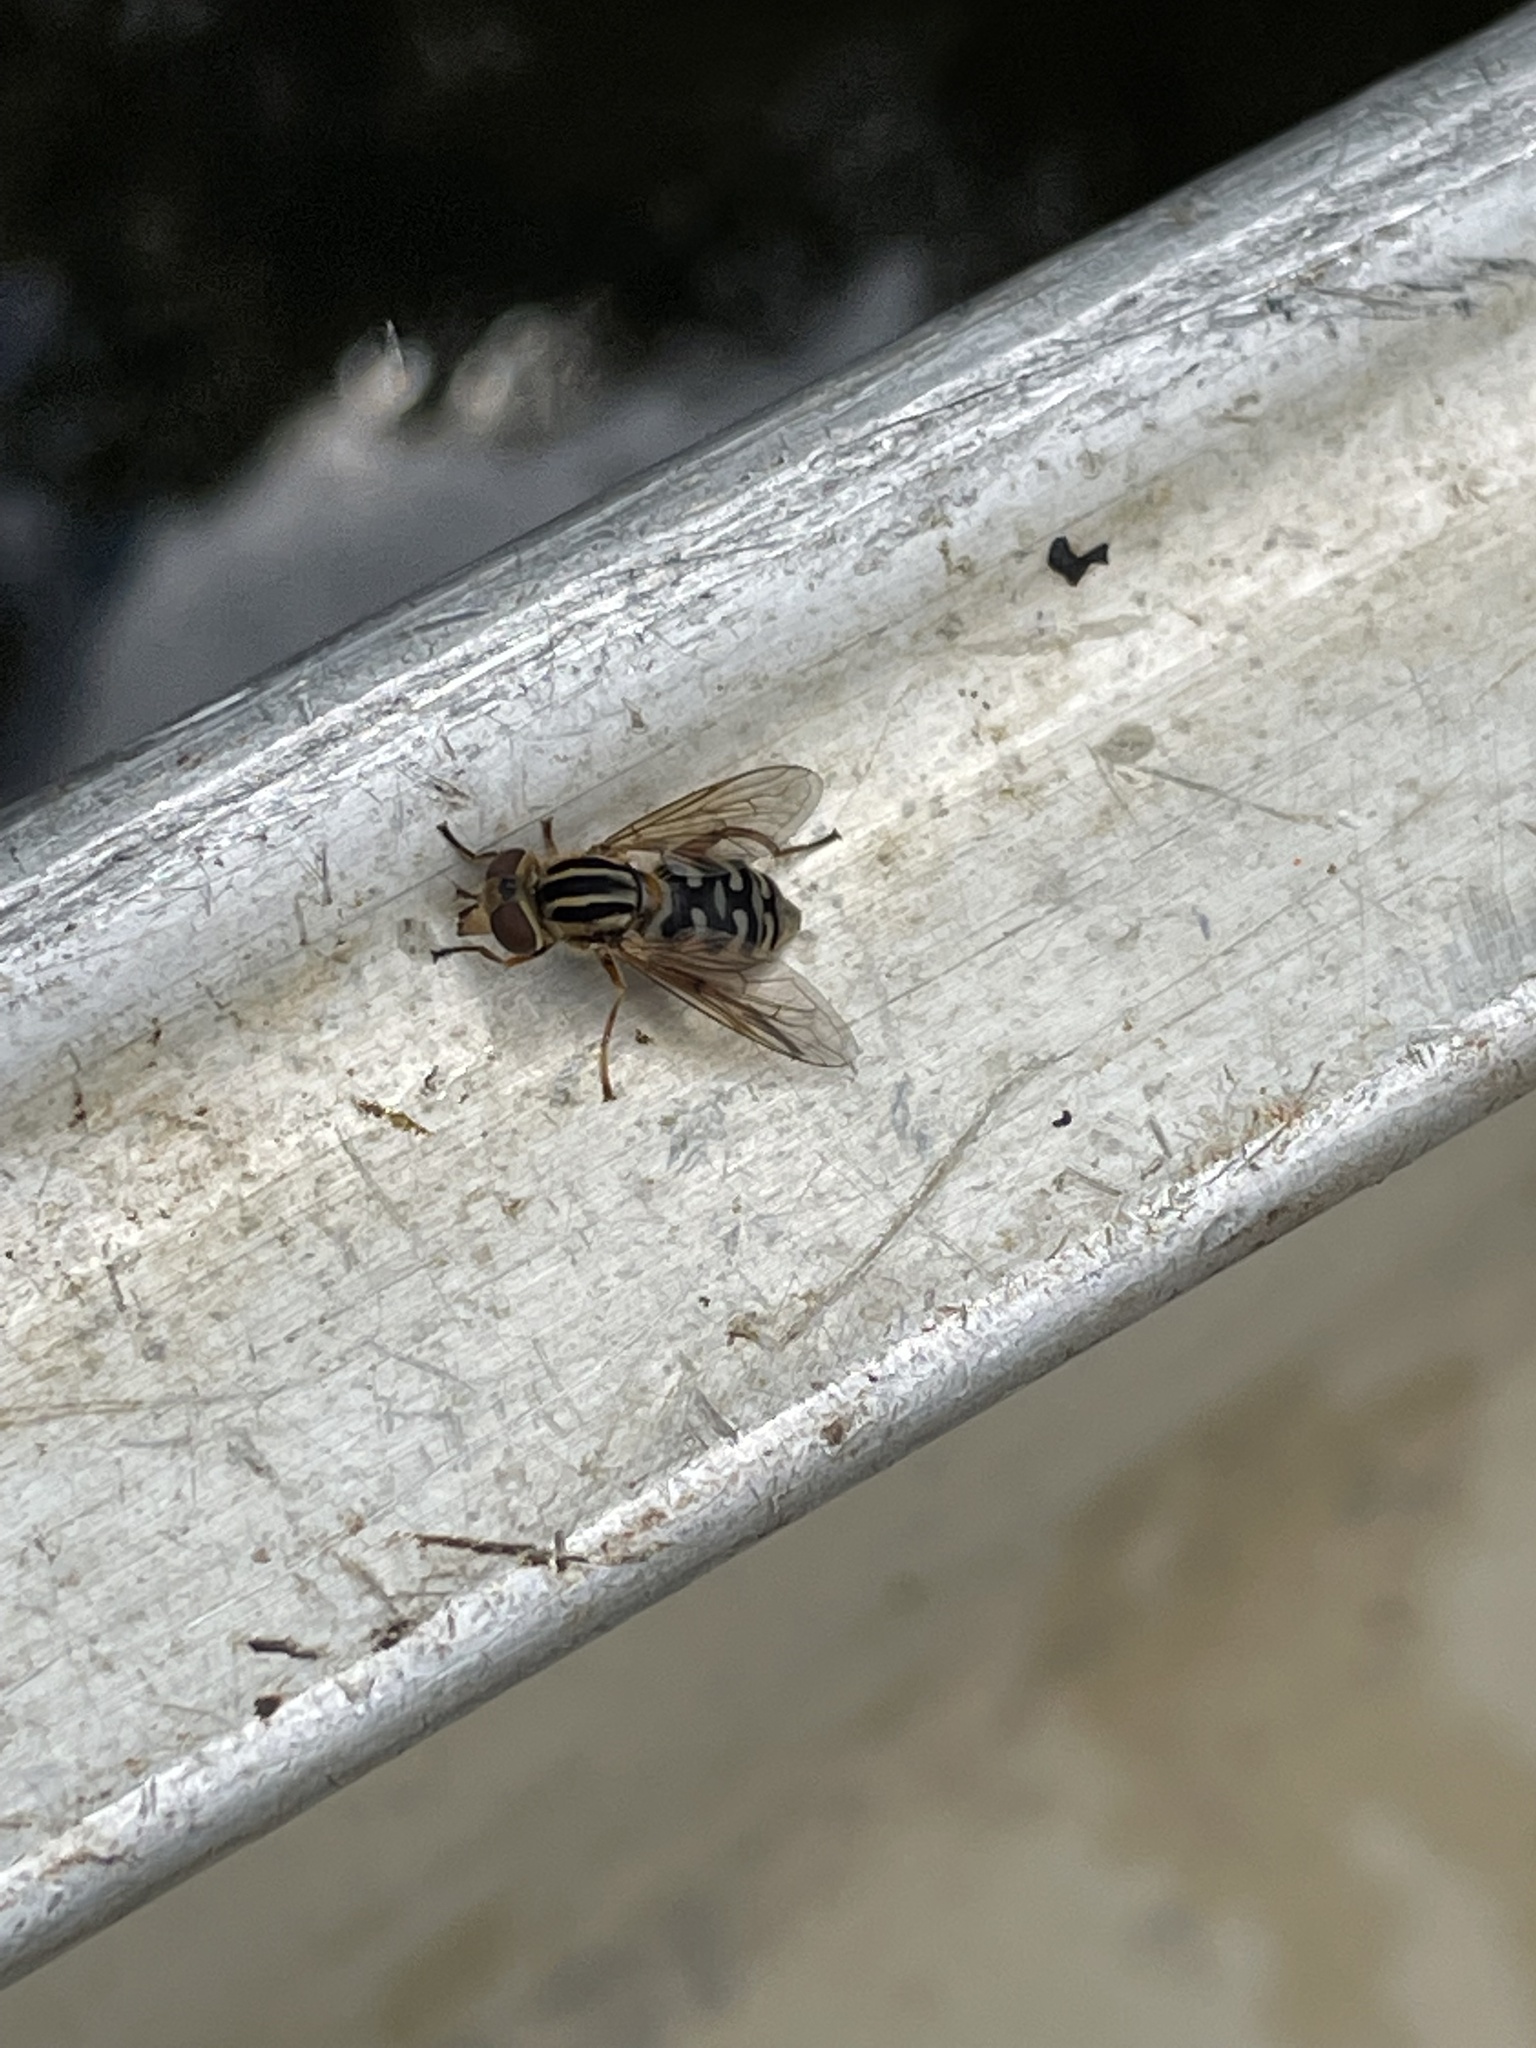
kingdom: Animalia
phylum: Arthropoda
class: Insecta
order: Diptera
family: Syrphidae
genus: Eurimyia
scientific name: Eurimyia stipatus
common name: Long-nosed swamp fly
